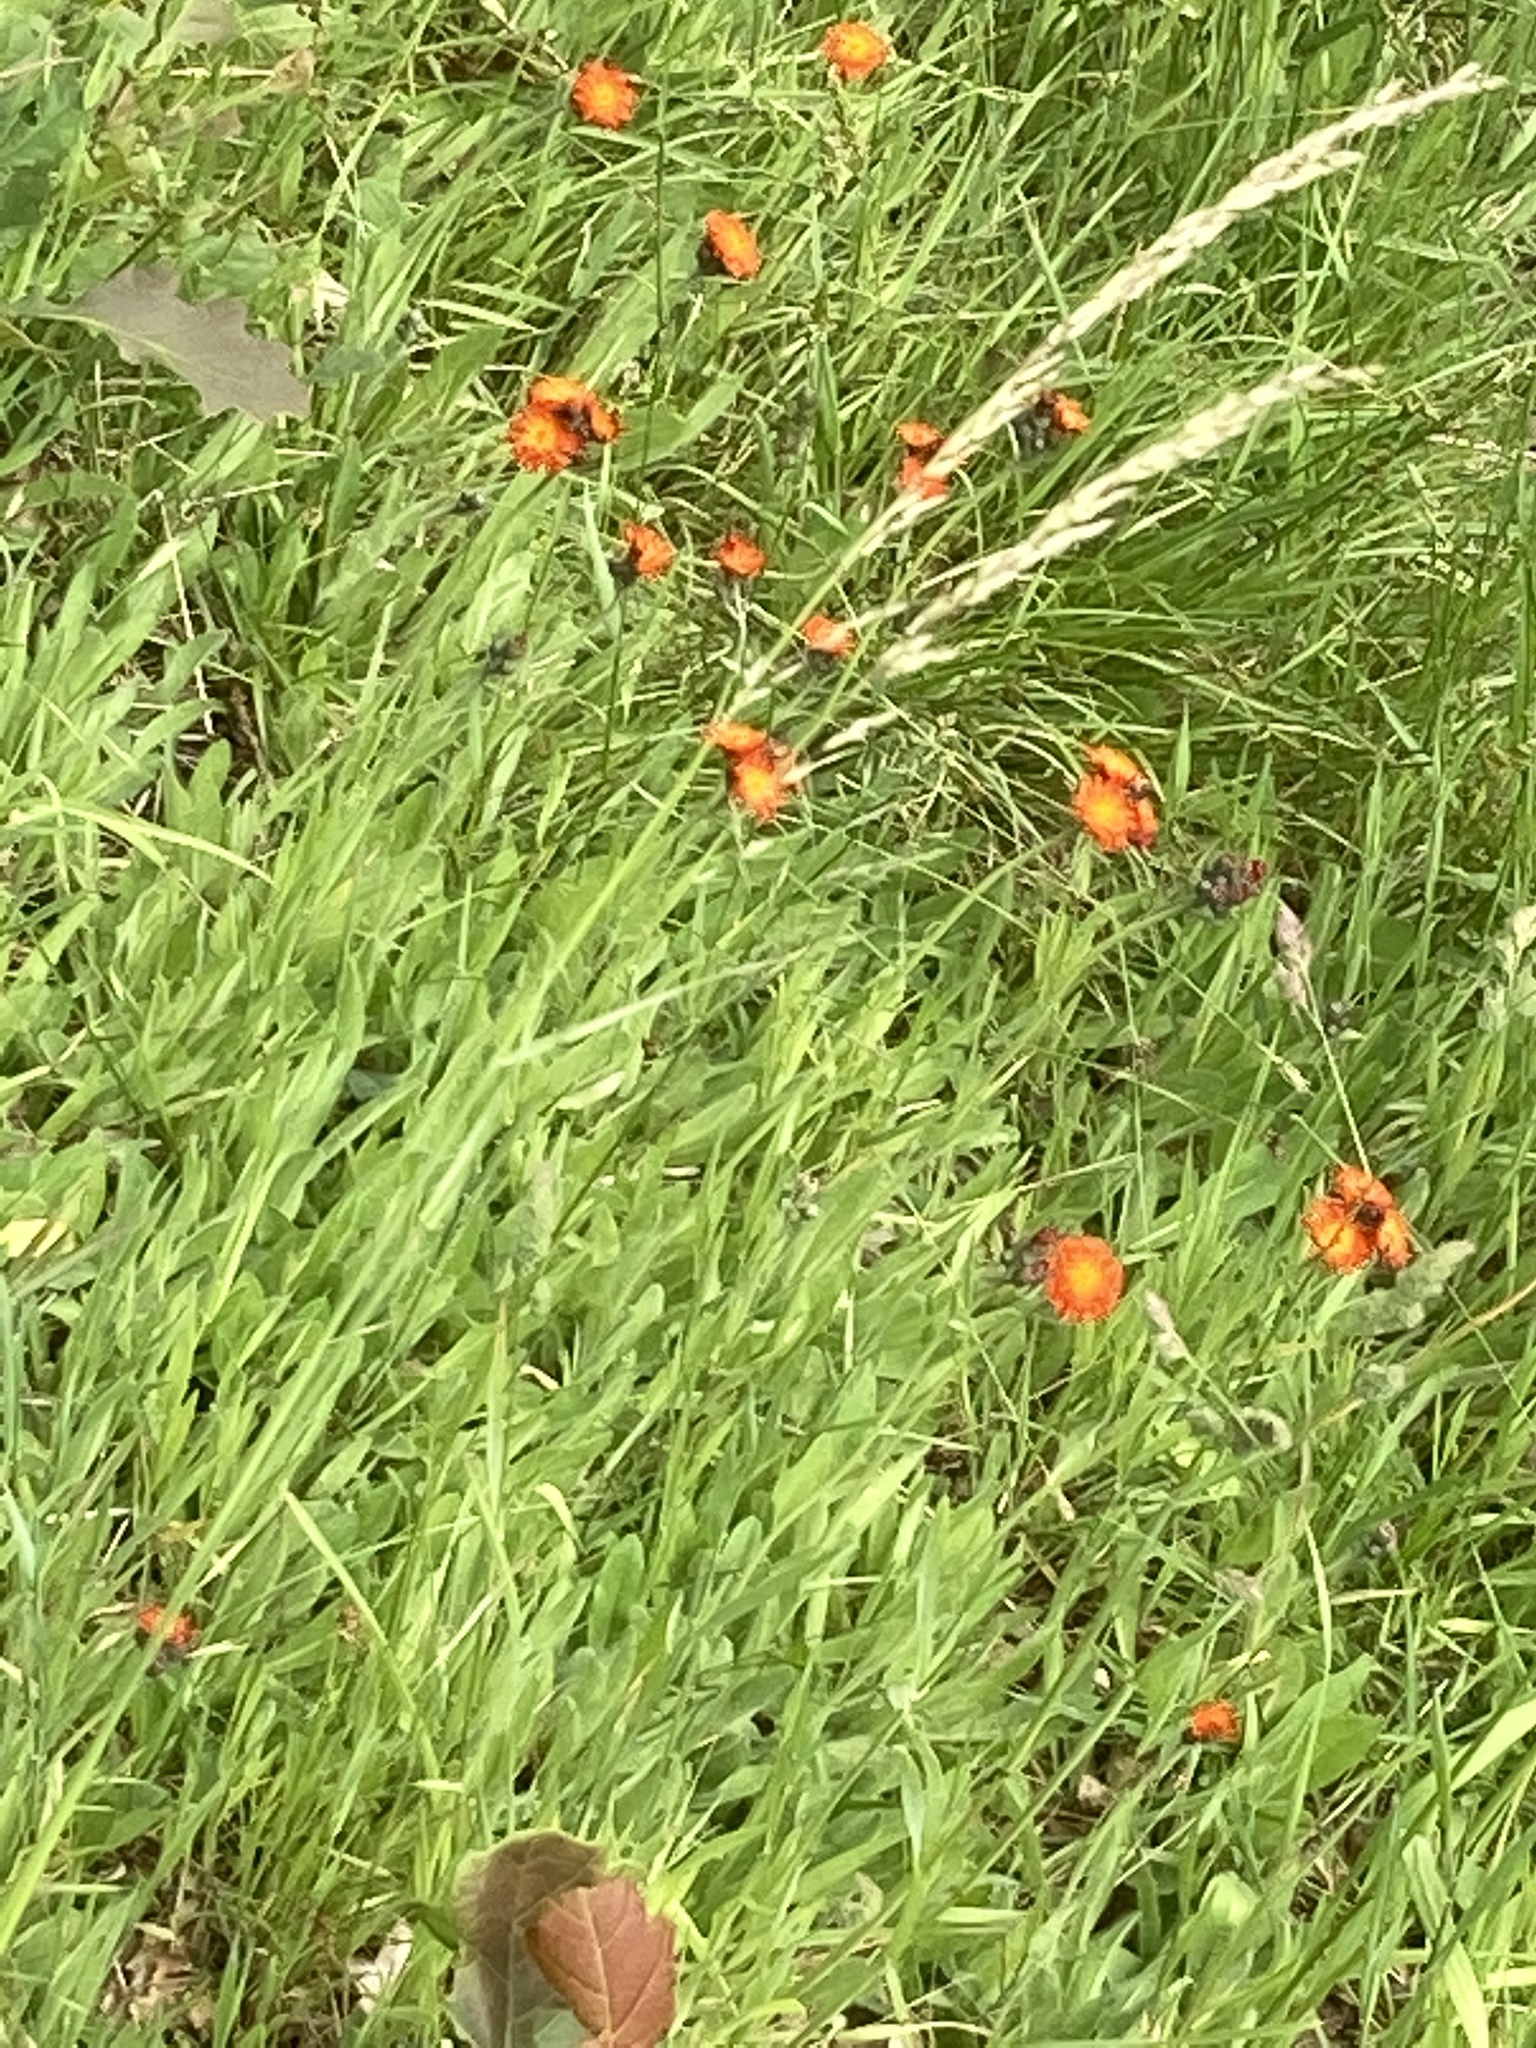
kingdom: Plantae
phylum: Tracheophyta
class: Magnoliopsida
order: Asterales
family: Asteraceae
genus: Pilosella
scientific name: Pilosella aurantiaca
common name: Fox-and-cubs
